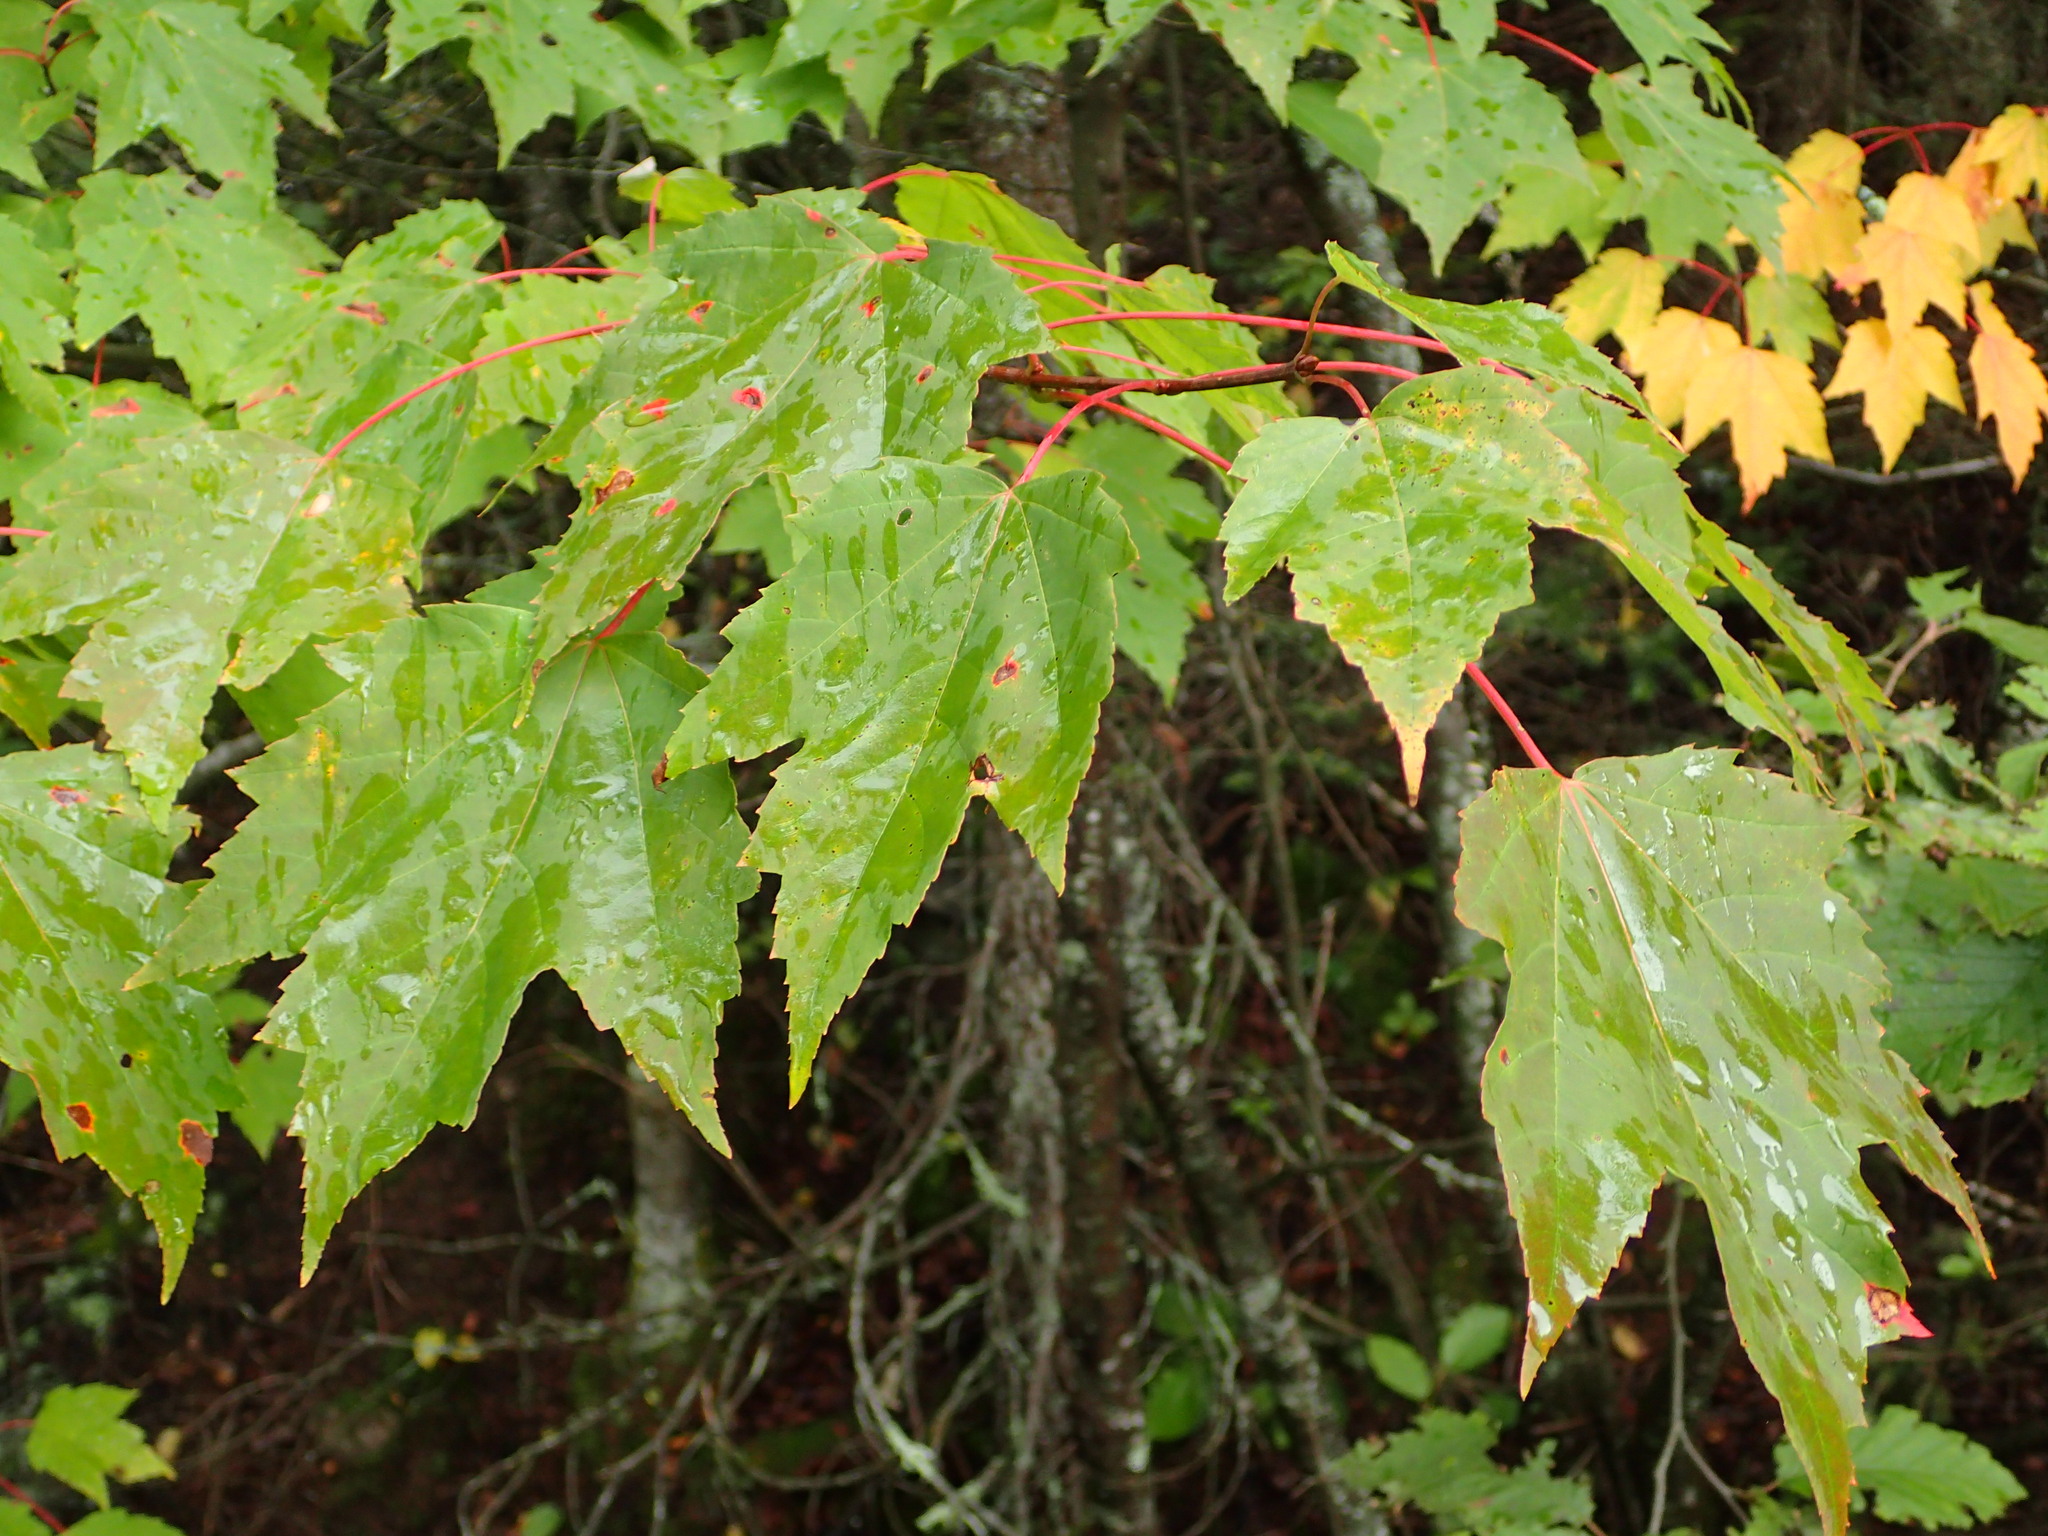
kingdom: Plantae
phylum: Tracheophyta
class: Magnoliopsida
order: Sapindales
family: Sapindaceae
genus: Acer
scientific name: Acer rubrum
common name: Red maple
